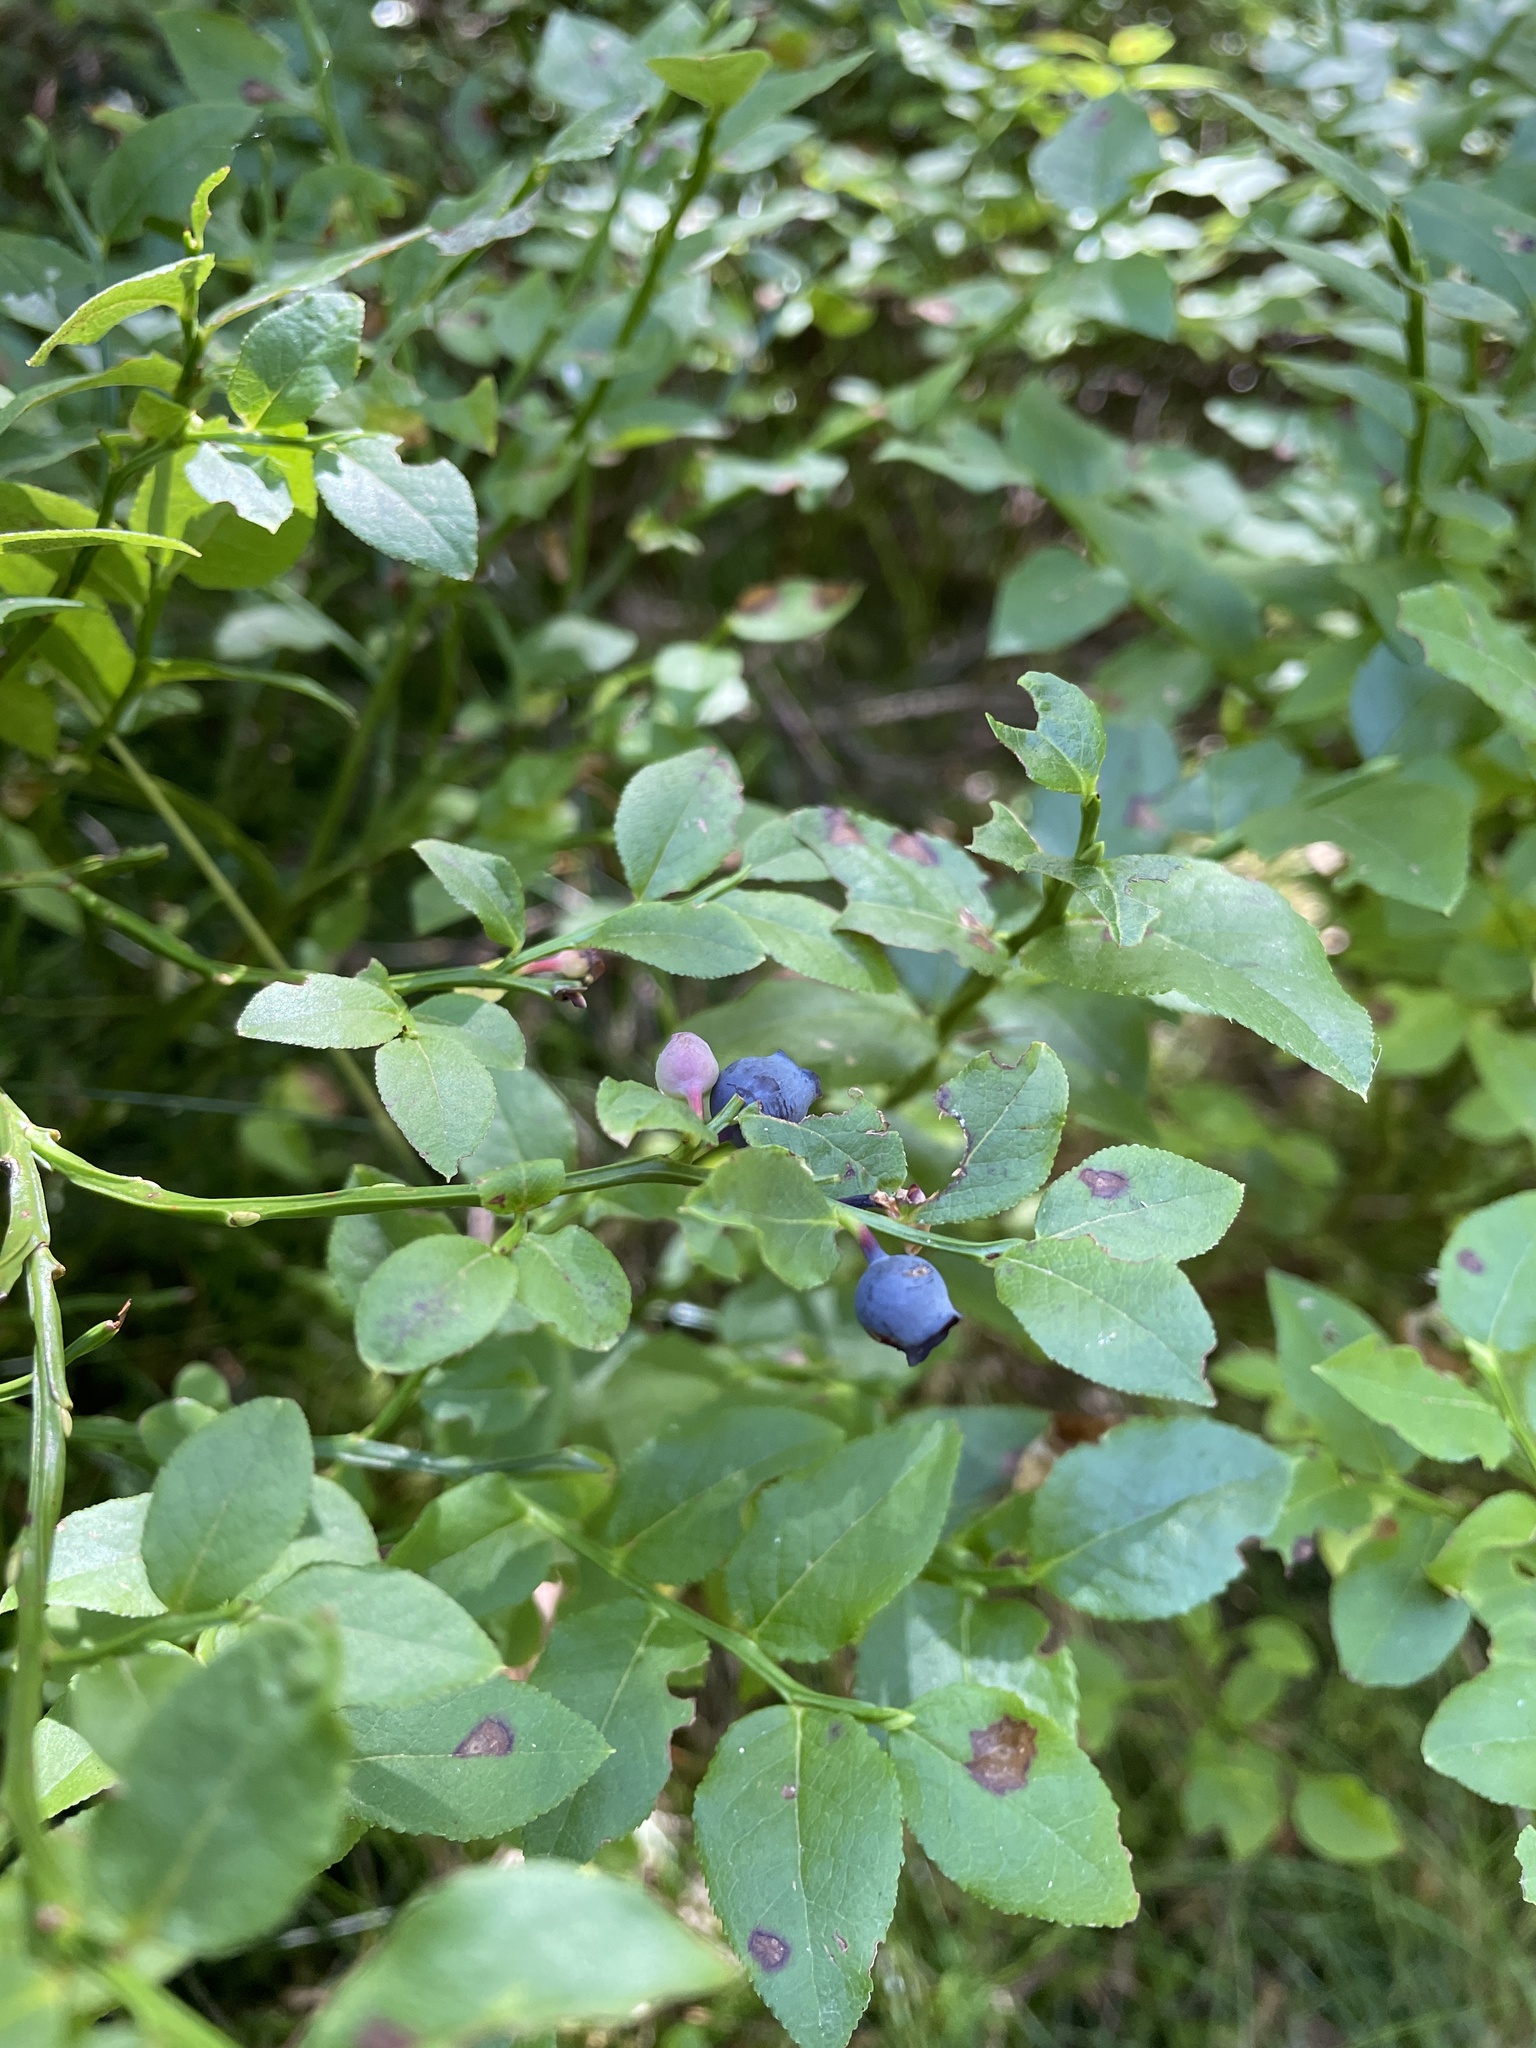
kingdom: Plantae
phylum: Tracheophyta
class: Magnoliopsida
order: Ericales
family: Ericaceae
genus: Vaccinium
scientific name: Vaccinium myrtillus
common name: Bilberry
